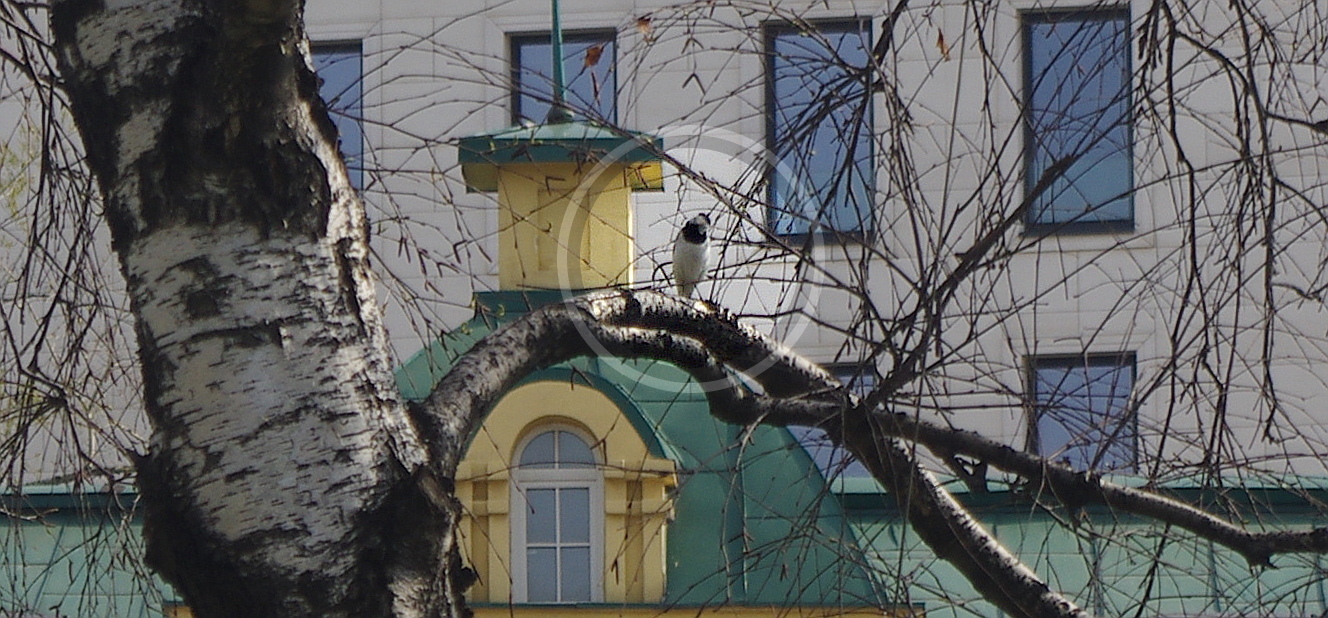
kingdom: Animalia
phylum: Chordata
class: Aves
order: Passeriformes
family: Motacillidae
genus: Motacilla
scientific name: Motacilla alba
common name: White wagtail
